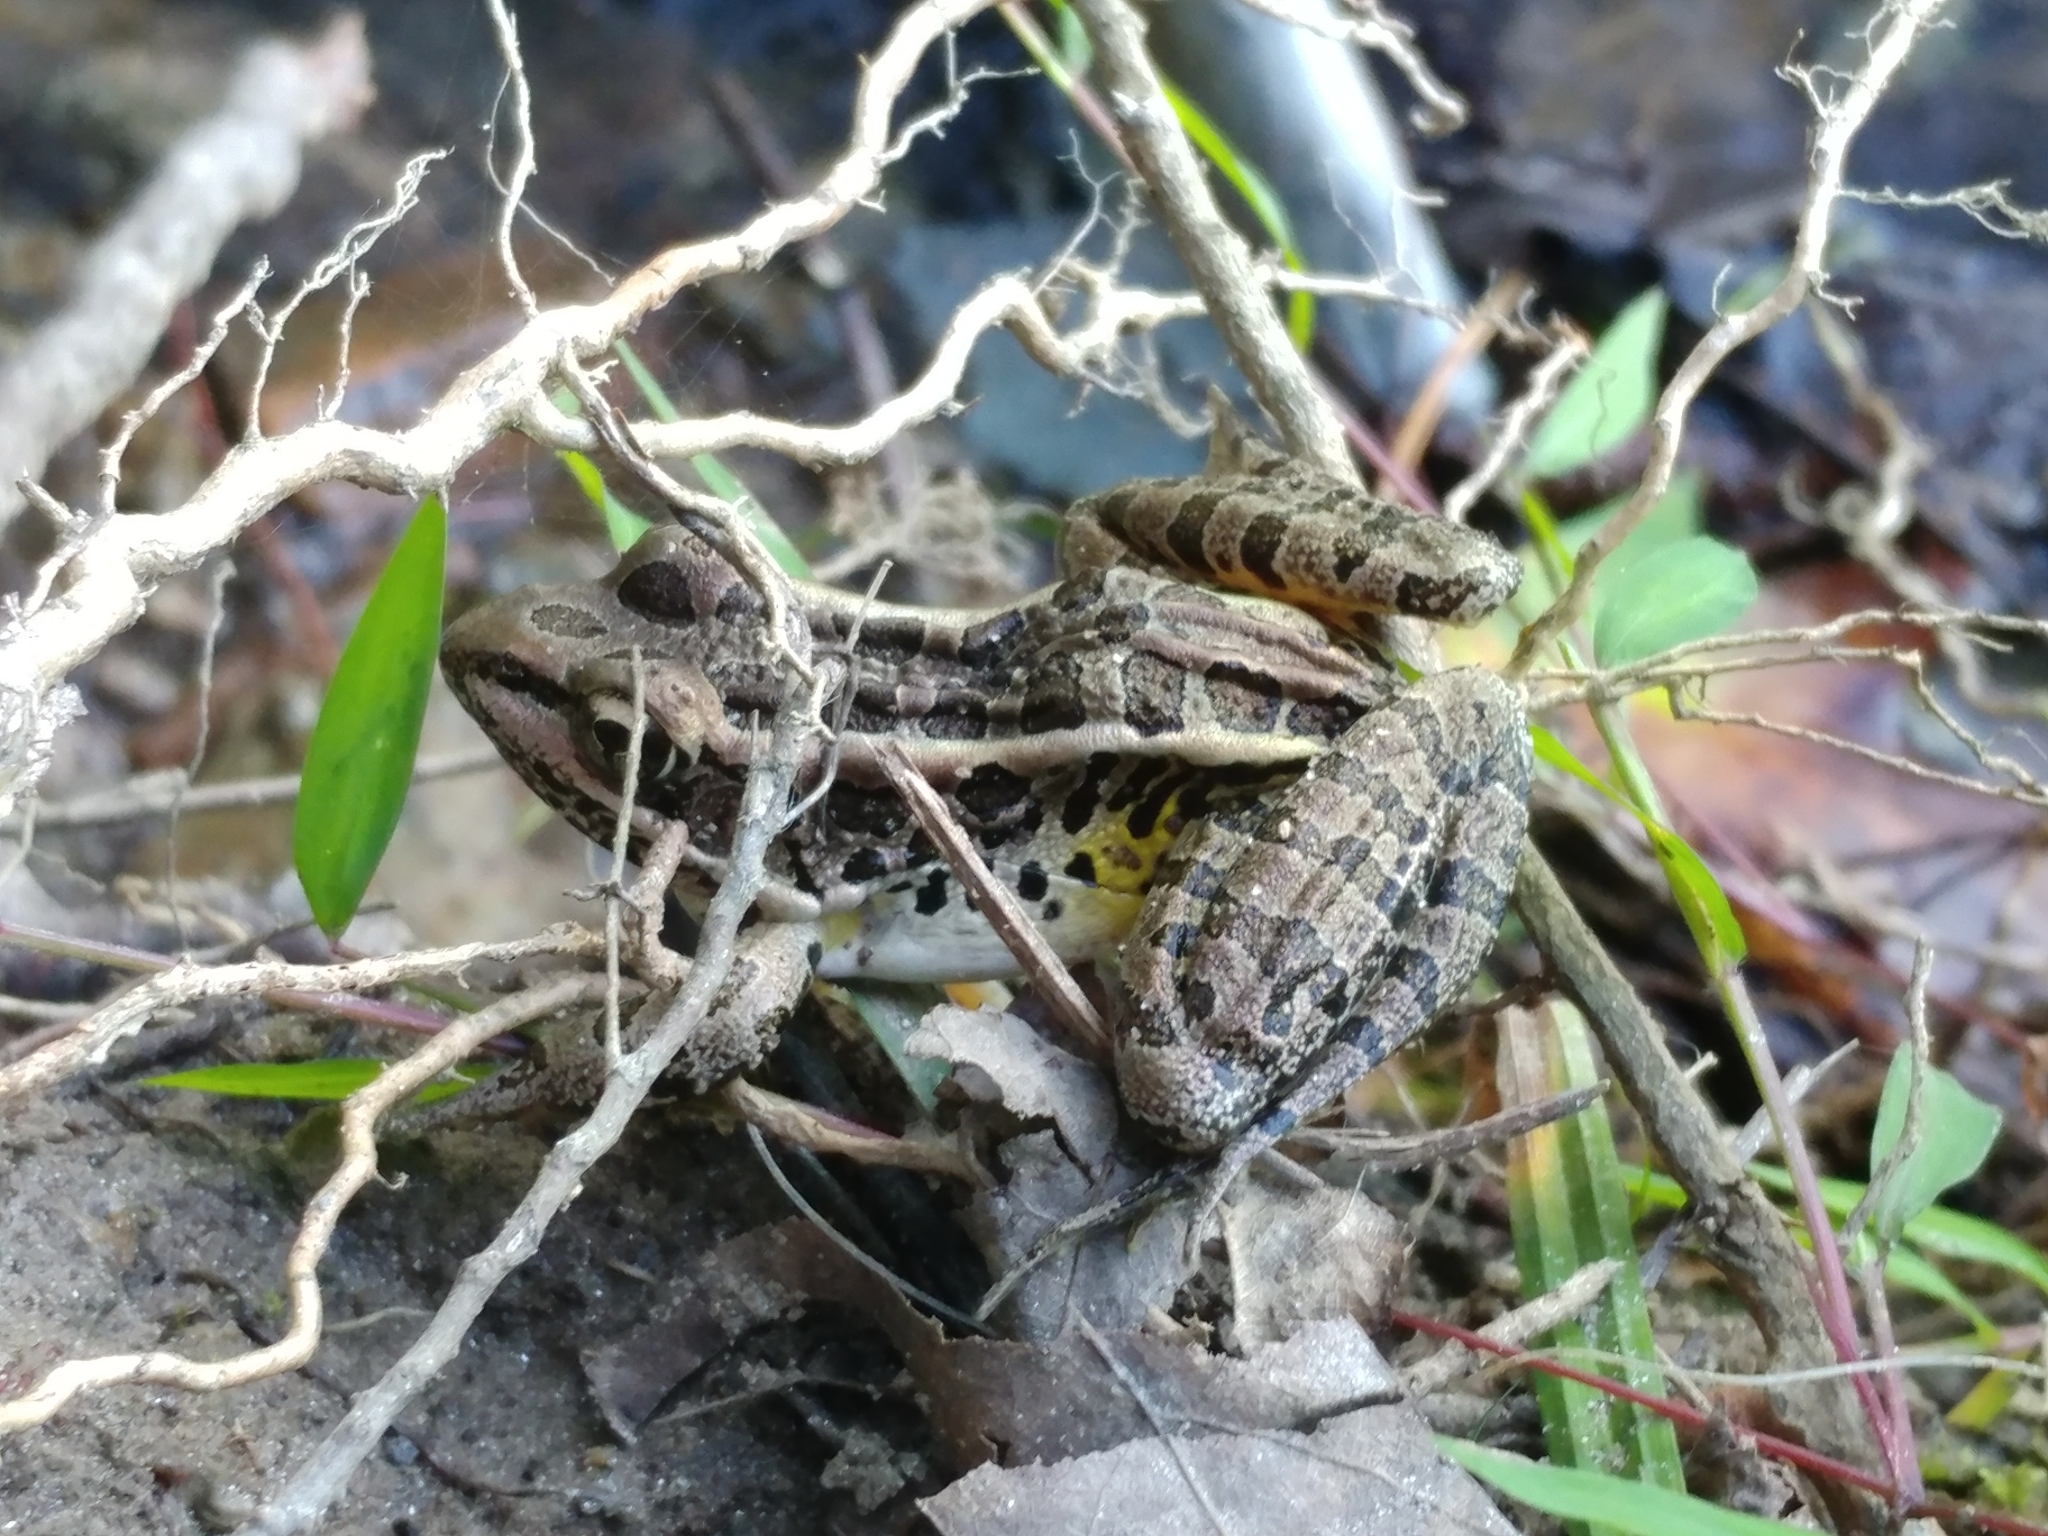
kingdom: Animalia
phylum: Chordata
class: Amphibia
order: Anura
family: Ranidae
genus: Lithobates
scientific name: Lithobates palustris
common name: Pickerel frog
